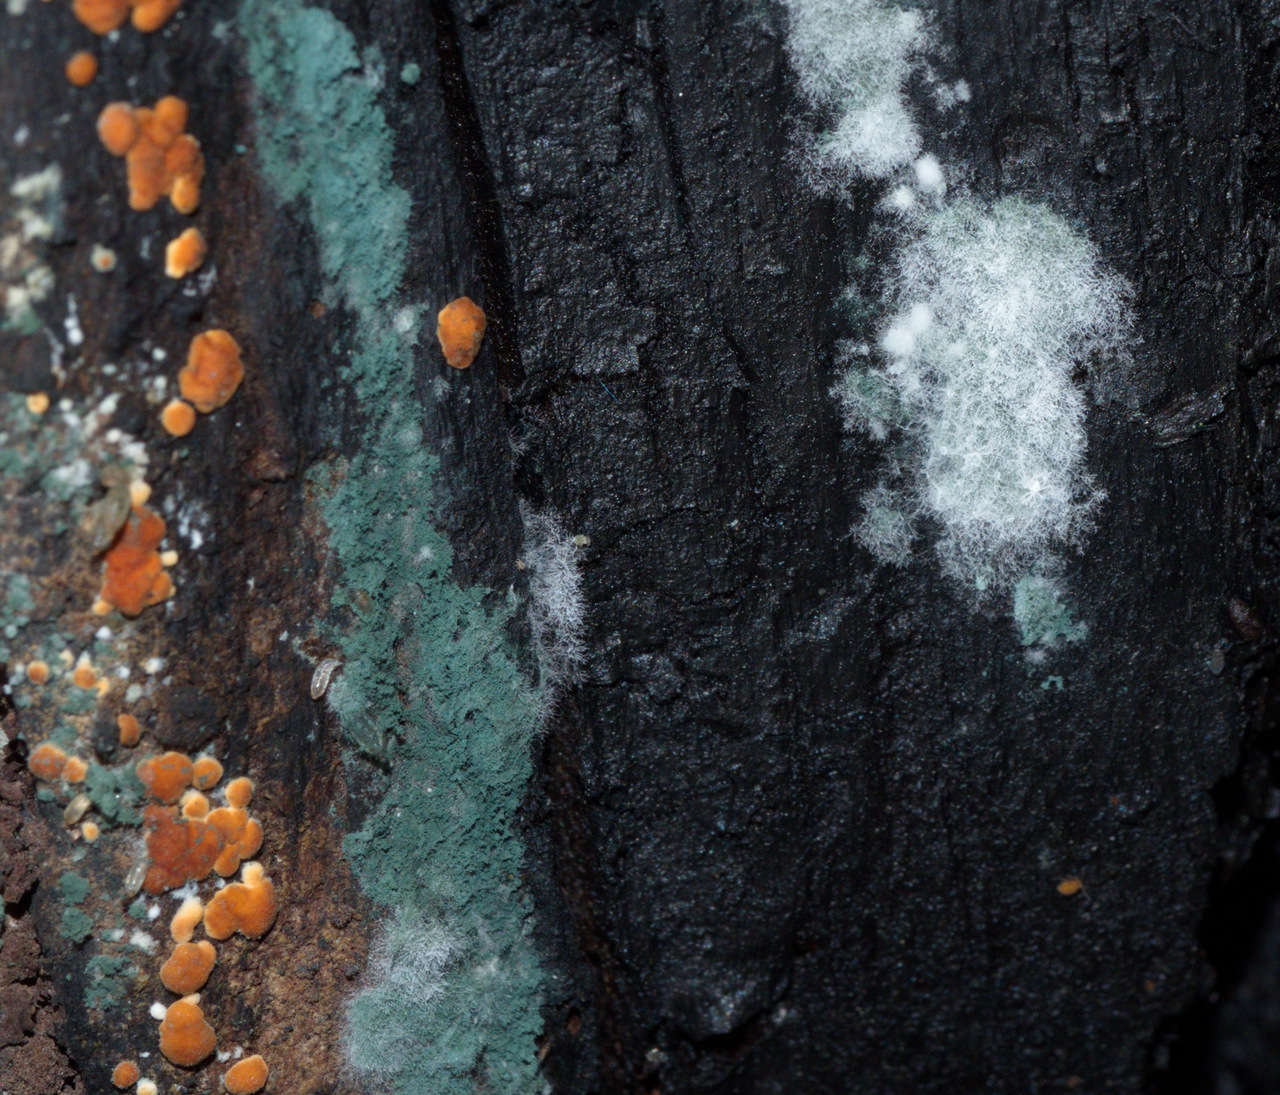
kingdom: Fungi
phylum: Ascomycota
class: Sordariomycetes
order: Hypocreales
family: Hypocreaceae
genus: Trichoderma
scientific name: Trichoderma viride
